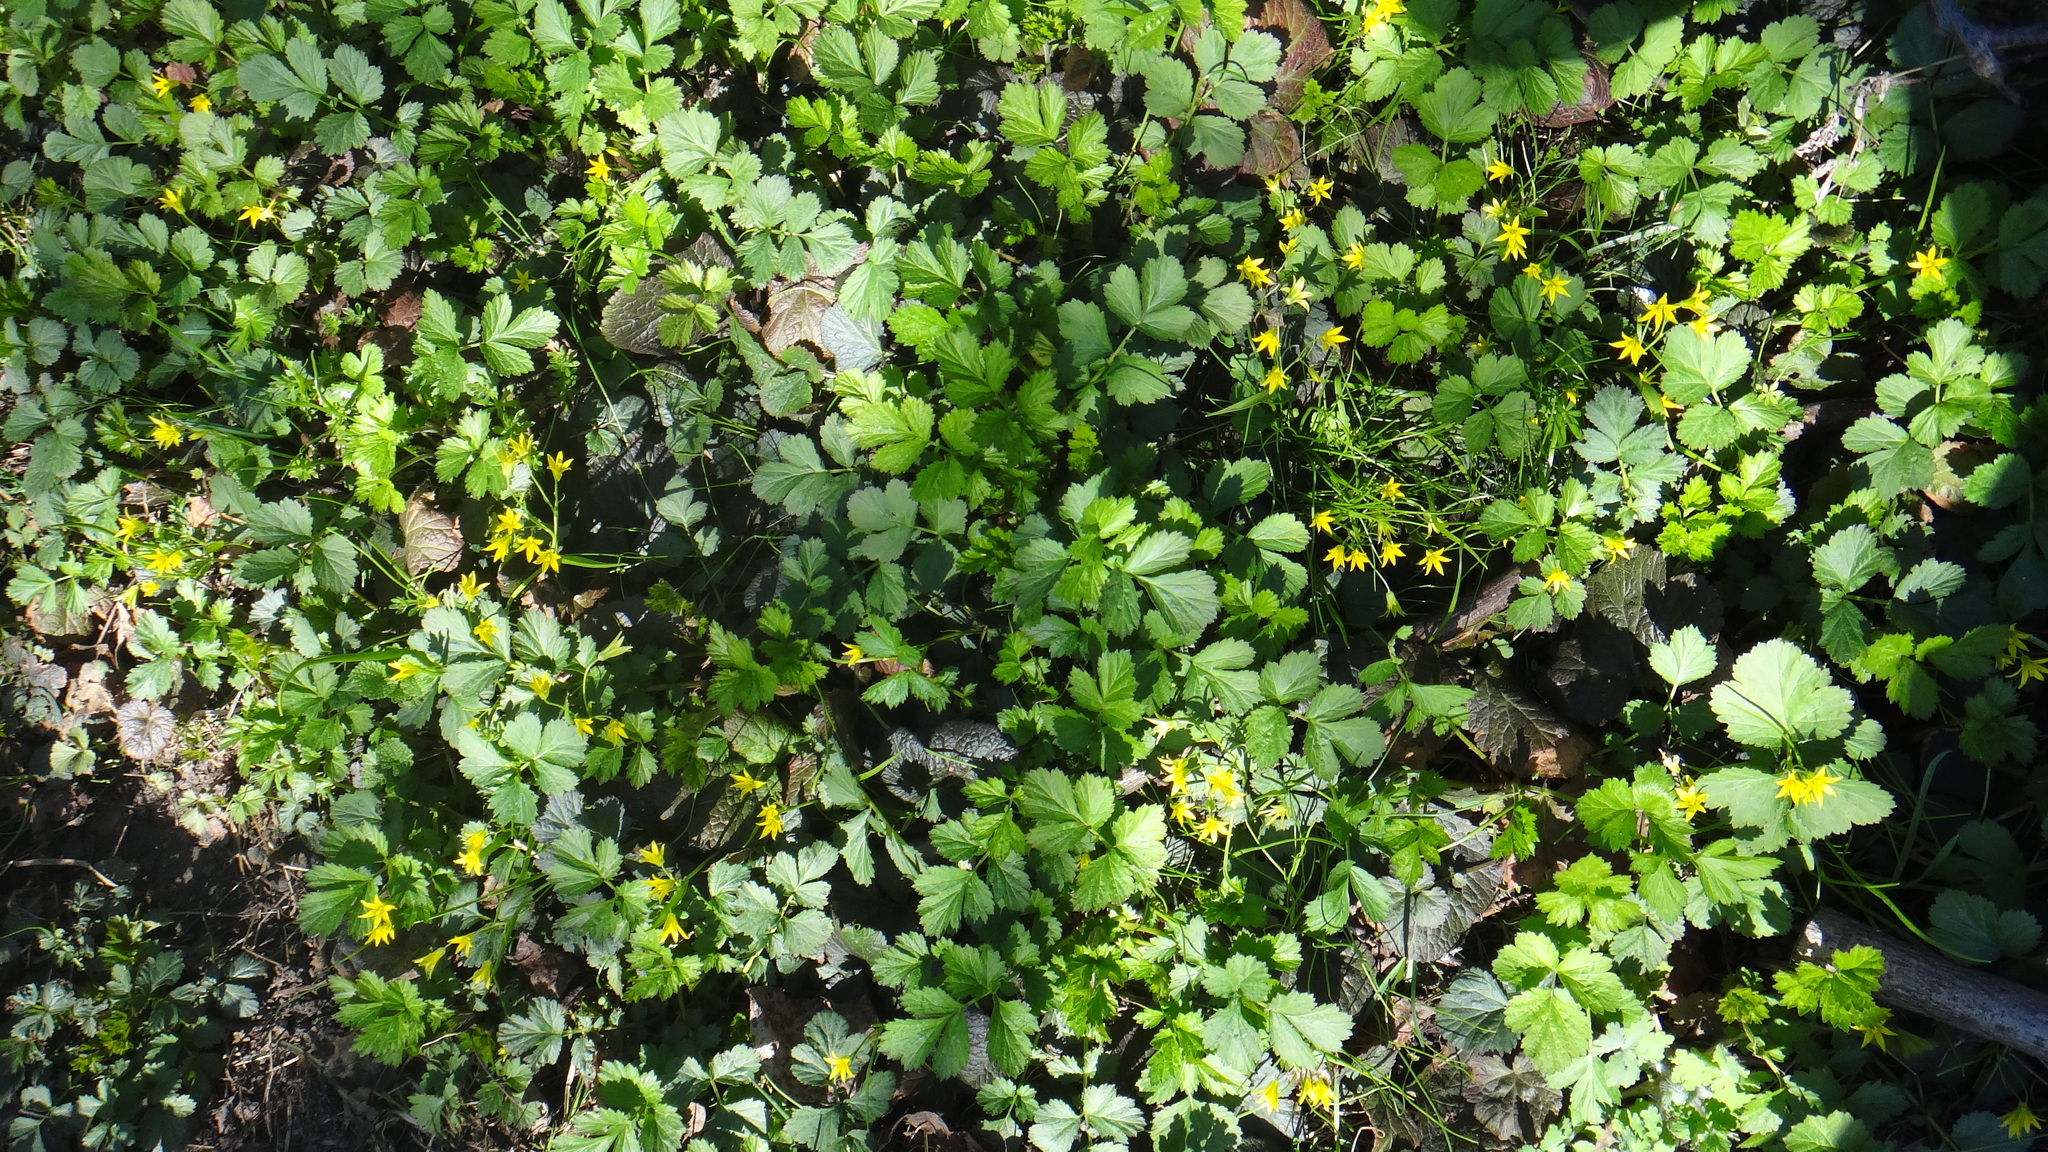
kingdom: Plantae
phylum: Tracheophyta
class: Liliopsida
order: Liliales
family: Liliaceae
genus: Gagea
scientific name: Gagea minima
